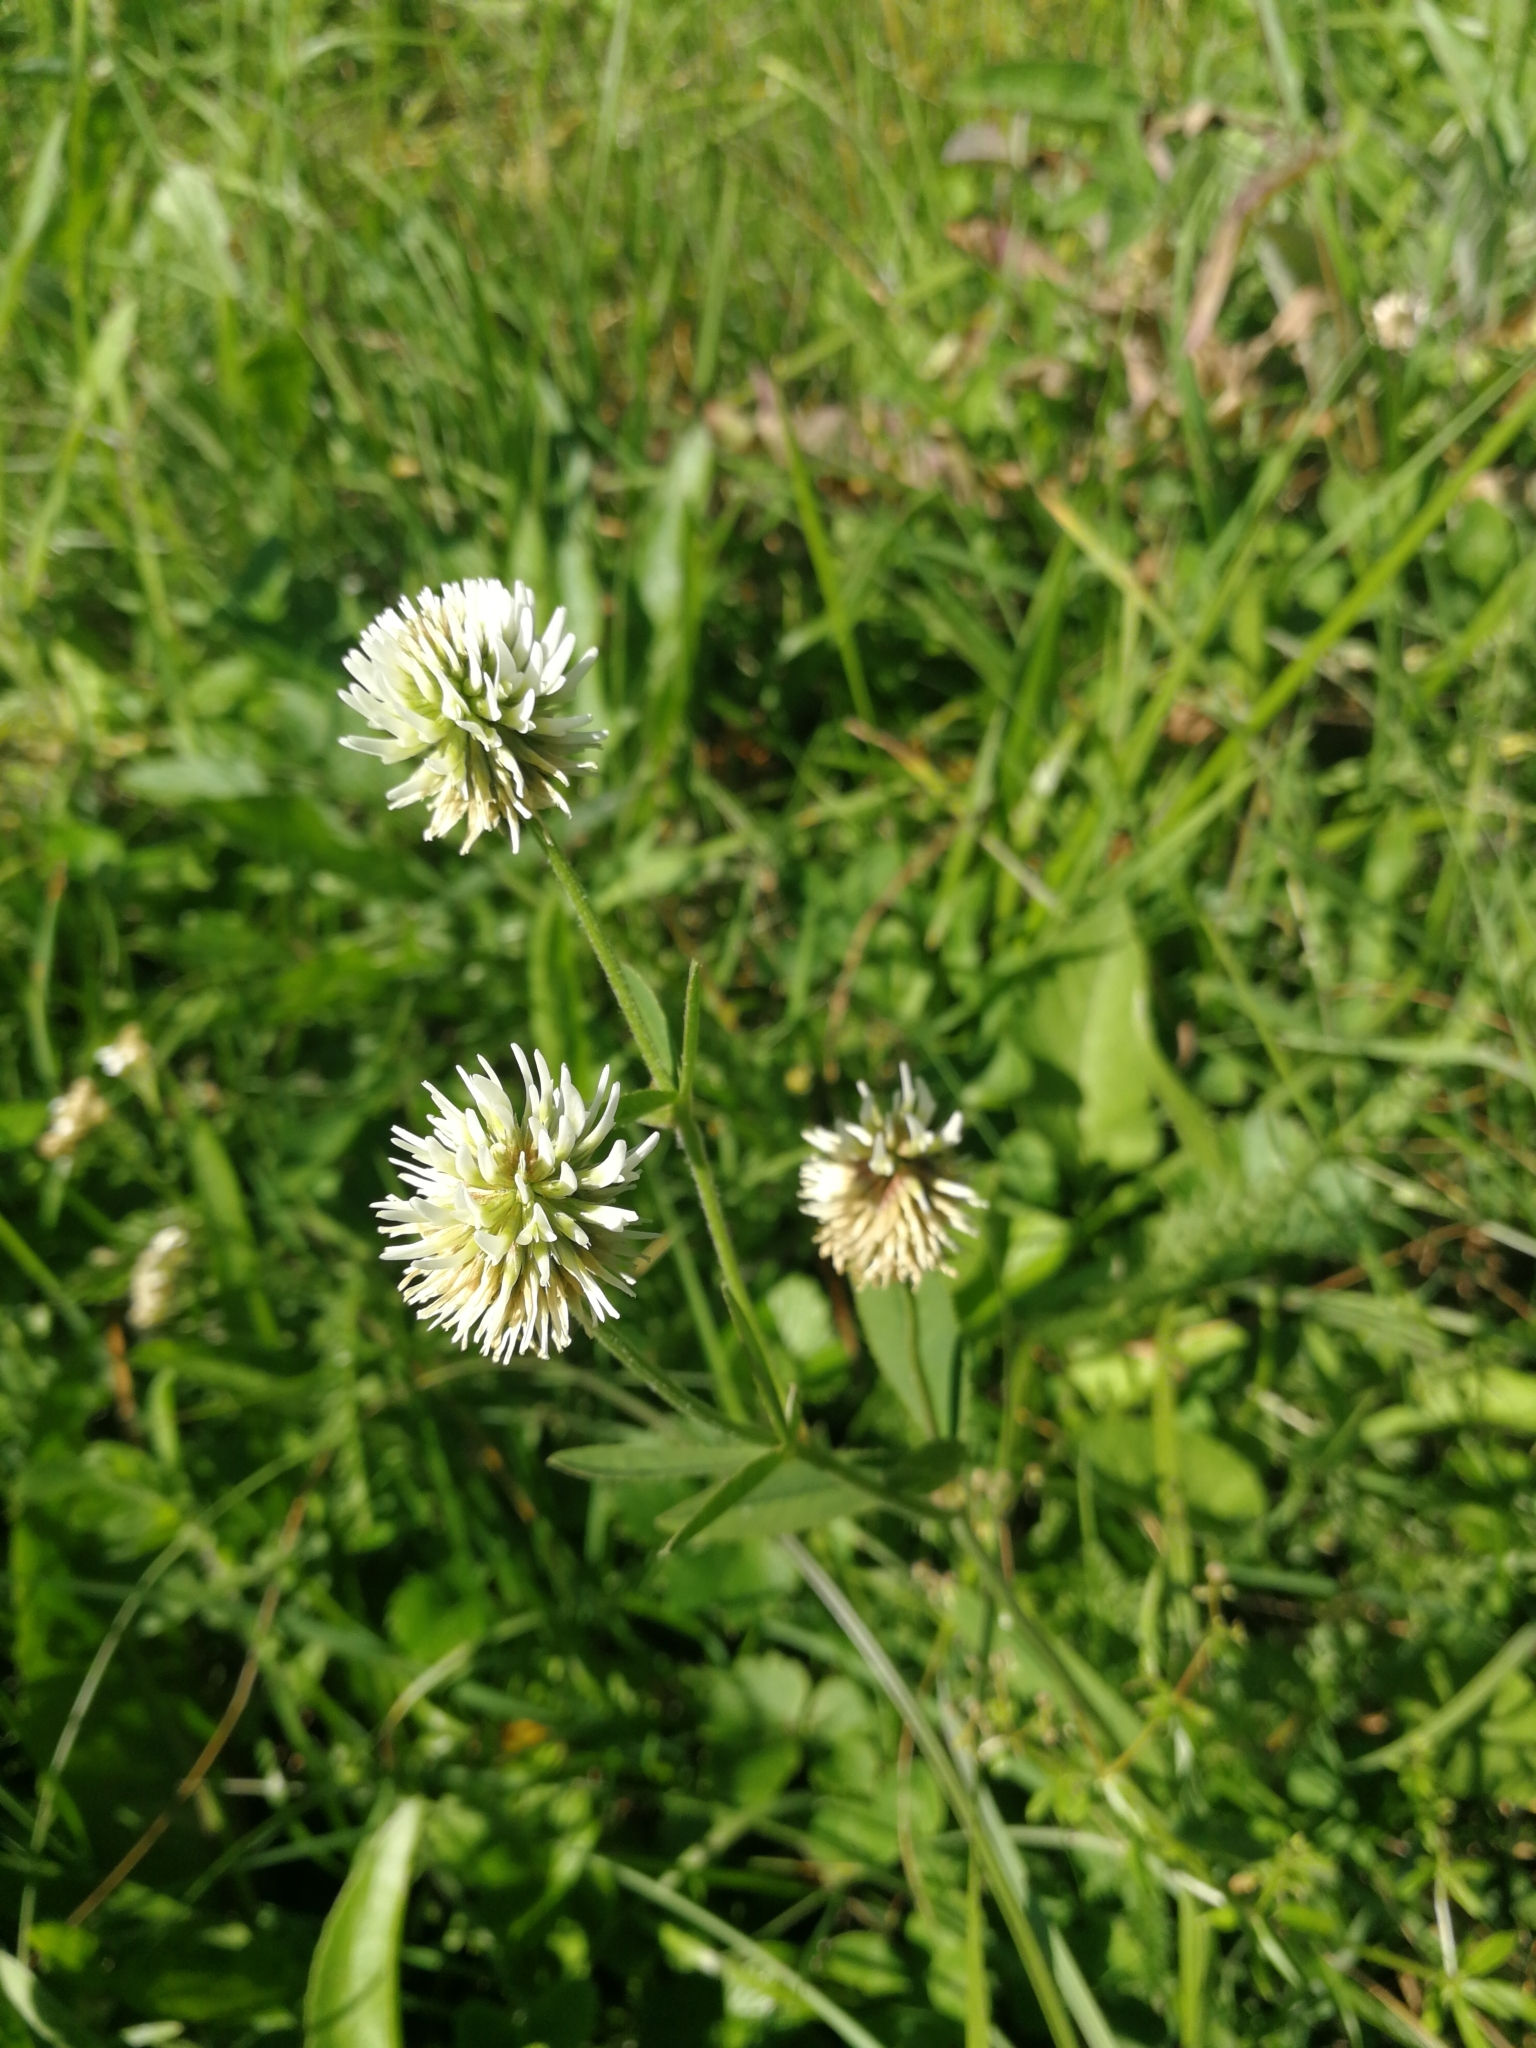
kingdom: Plantae
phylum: Tracheophyta
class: Magnoliopsida
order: Fabales
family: Fabaceae
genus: Trifolium
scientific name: Trifolium montanum
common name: Mountain clover
